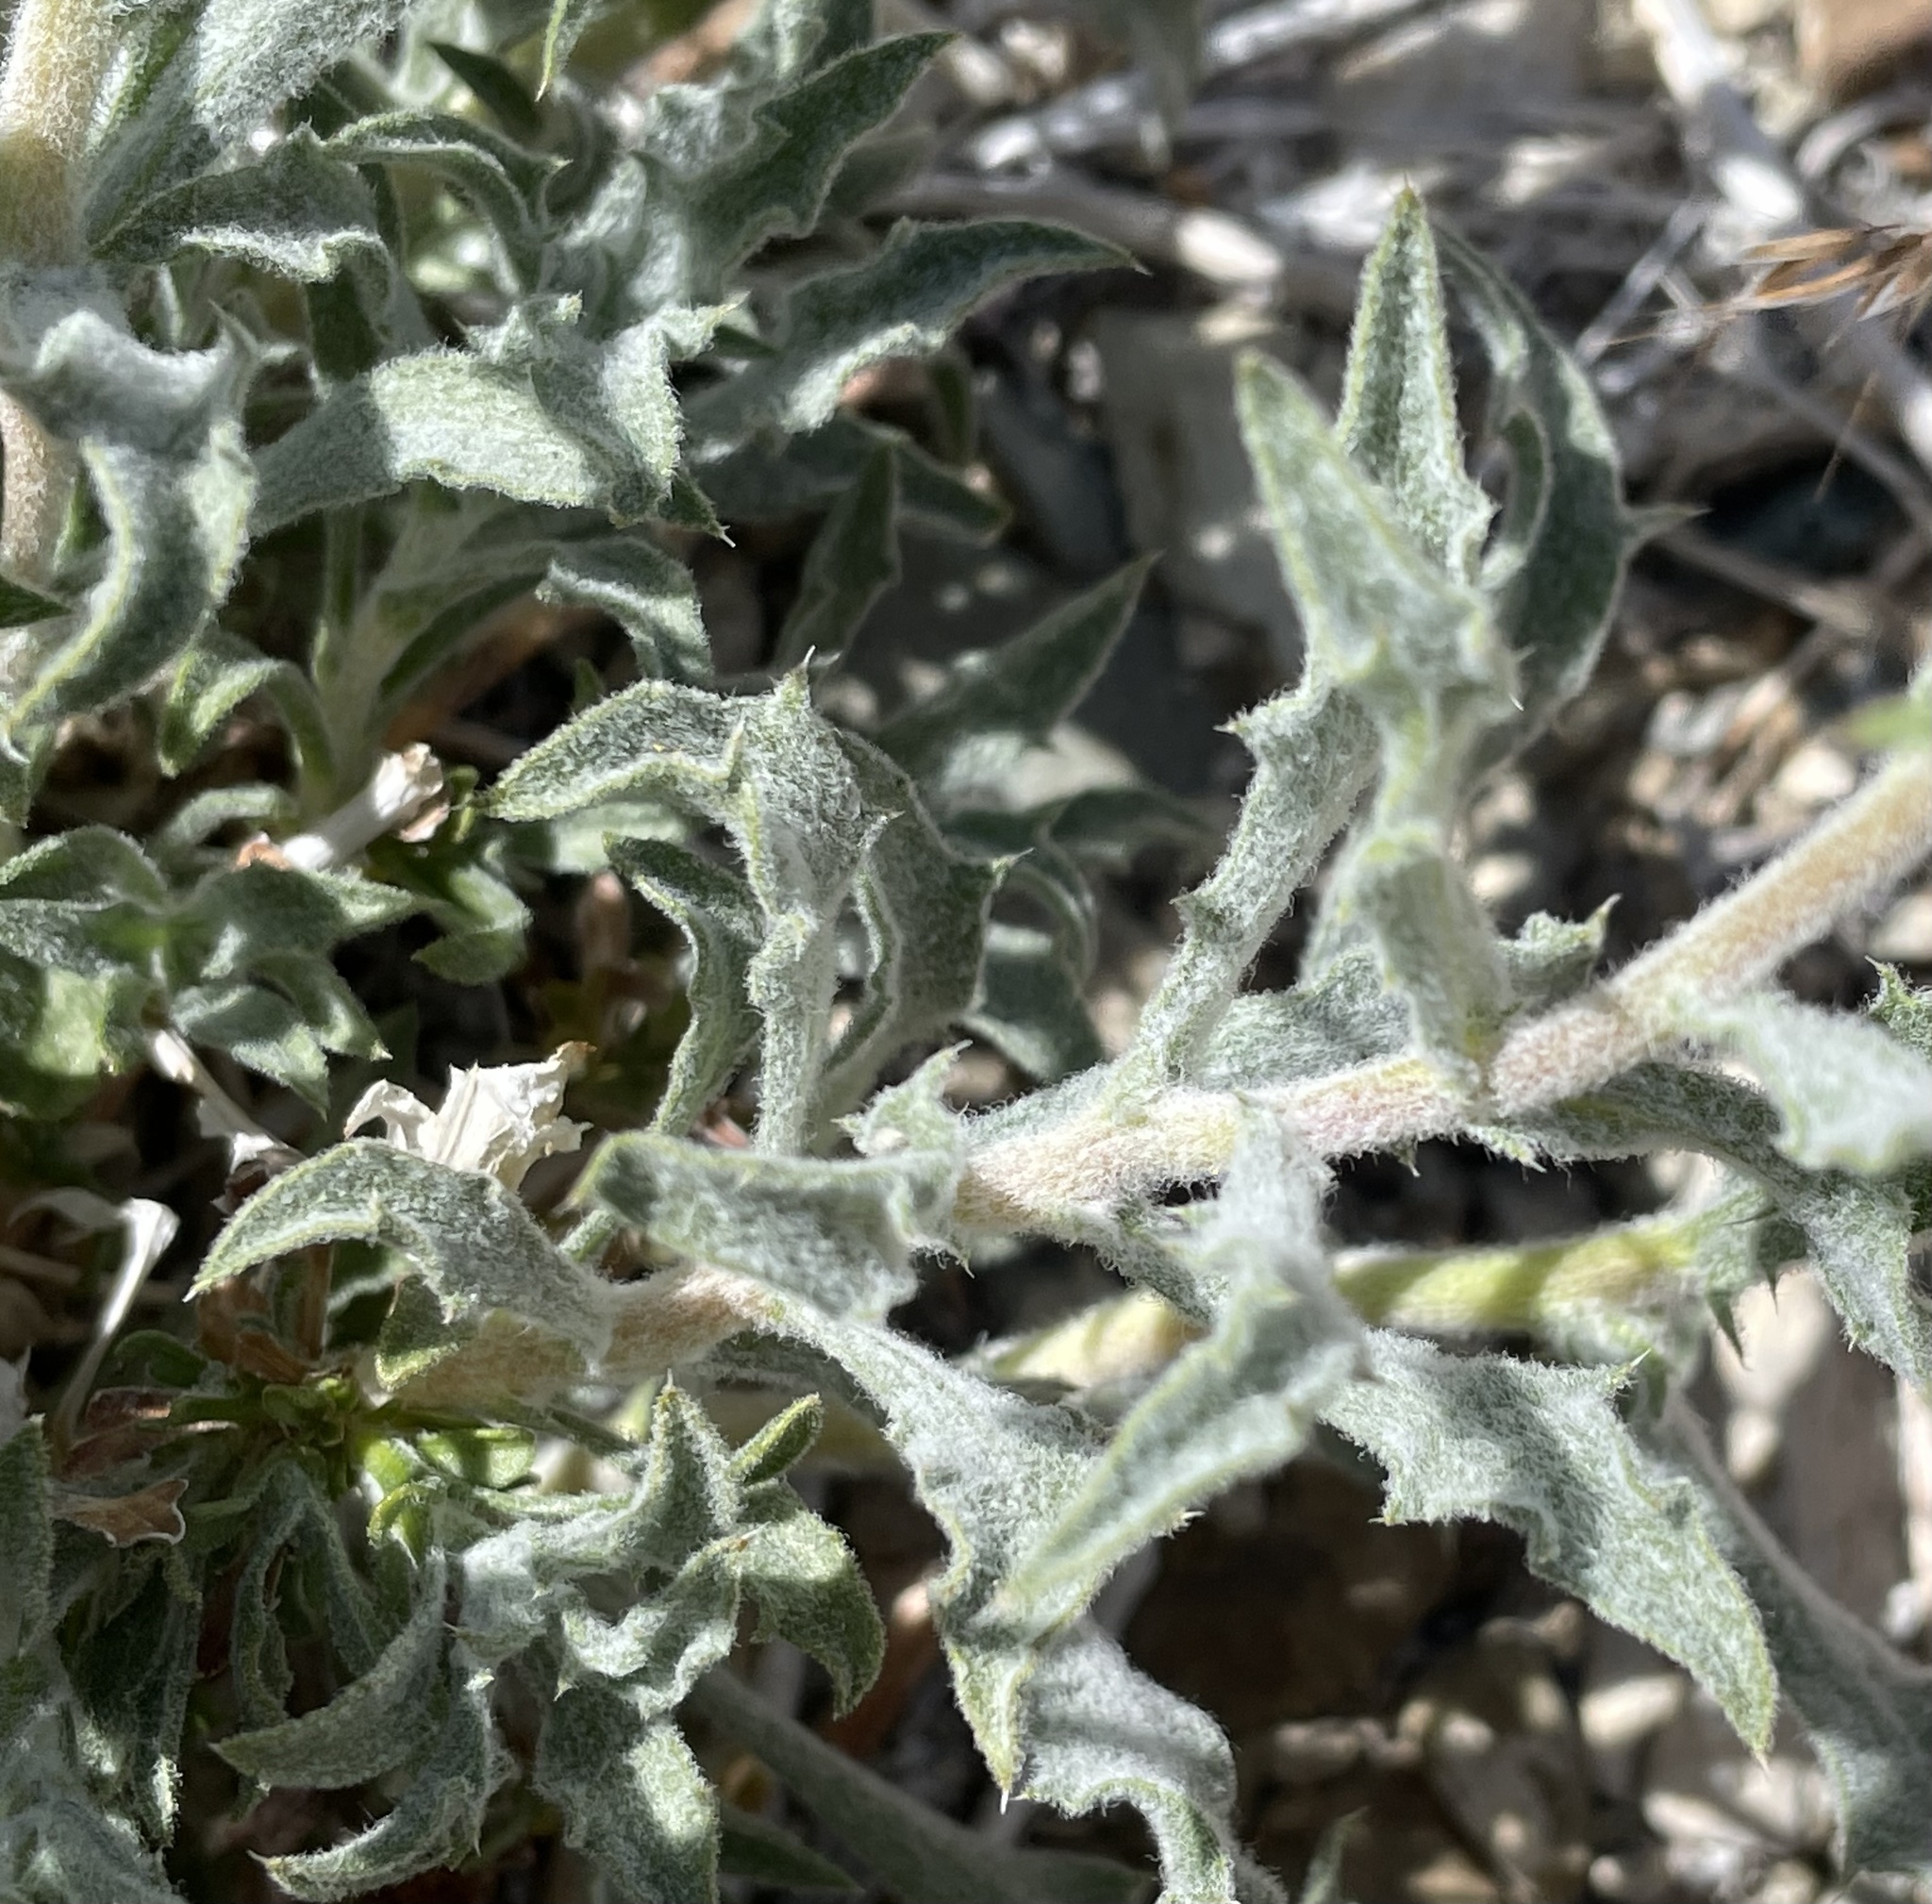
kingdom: Plantae
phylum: Tracheophyta
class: Magnoliopsida
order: Asterales
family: Asteraceae
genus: Xylorhiza
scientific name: Xylorhiza tortifolia
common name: Hurt-leaf woody-aster
